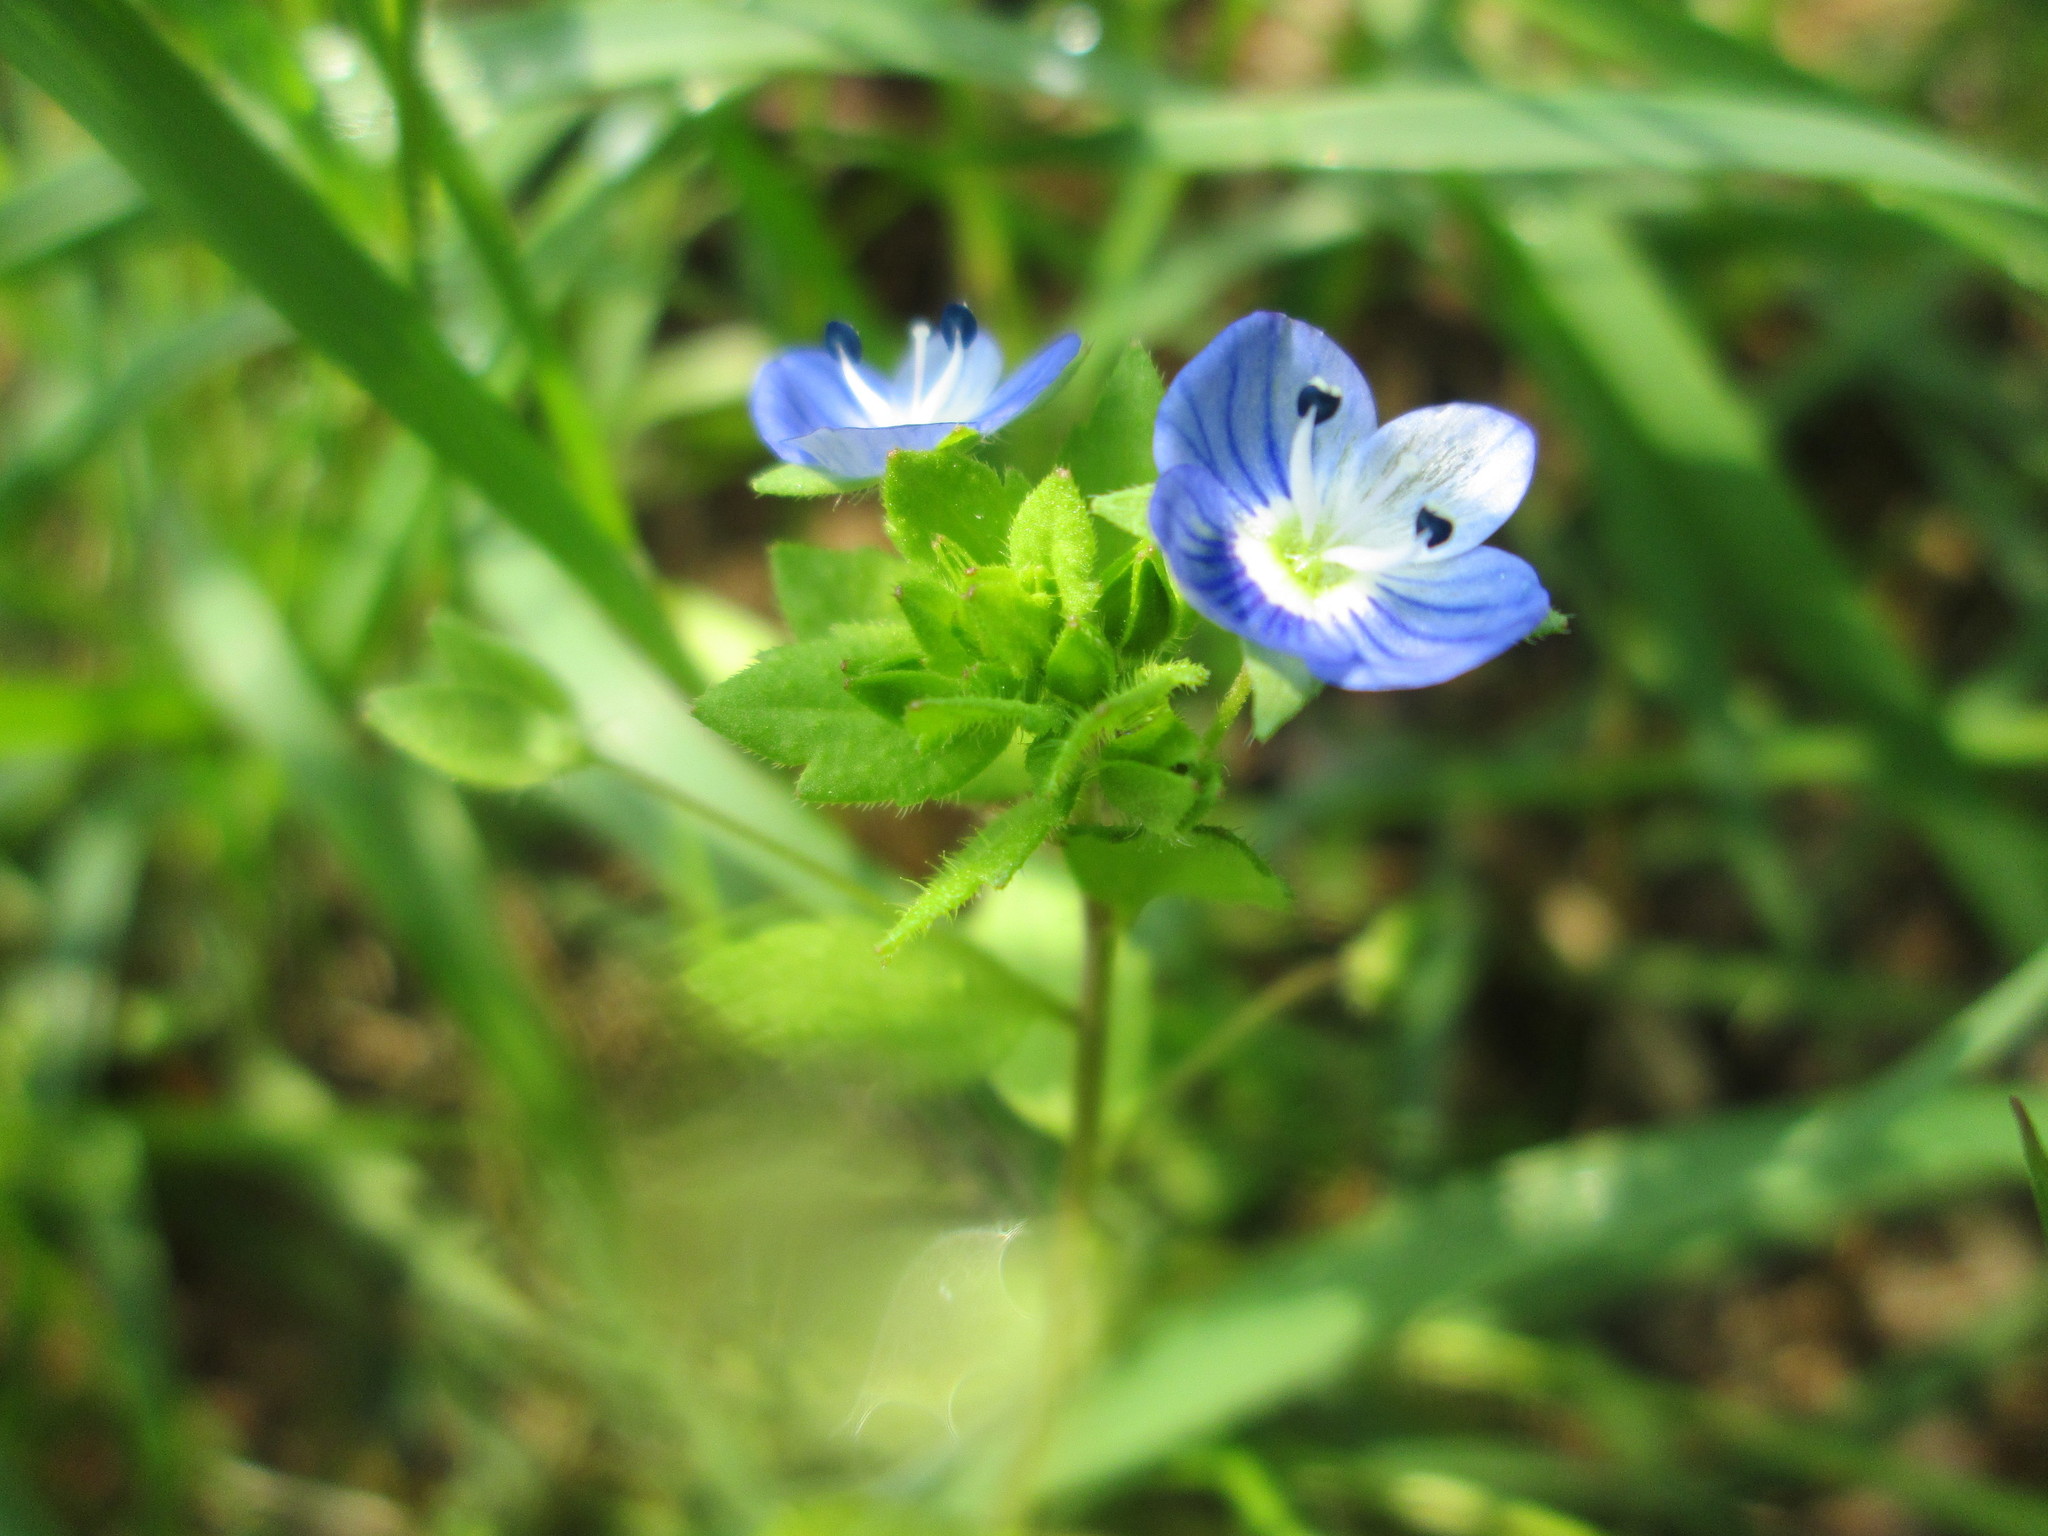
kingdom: Plantae
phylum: Tracheophyta
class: Magnoliopsida
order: Lamiales
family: Plantaginaceae
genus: Veronica
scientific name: Veronica persica
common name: Common field-speedwell
